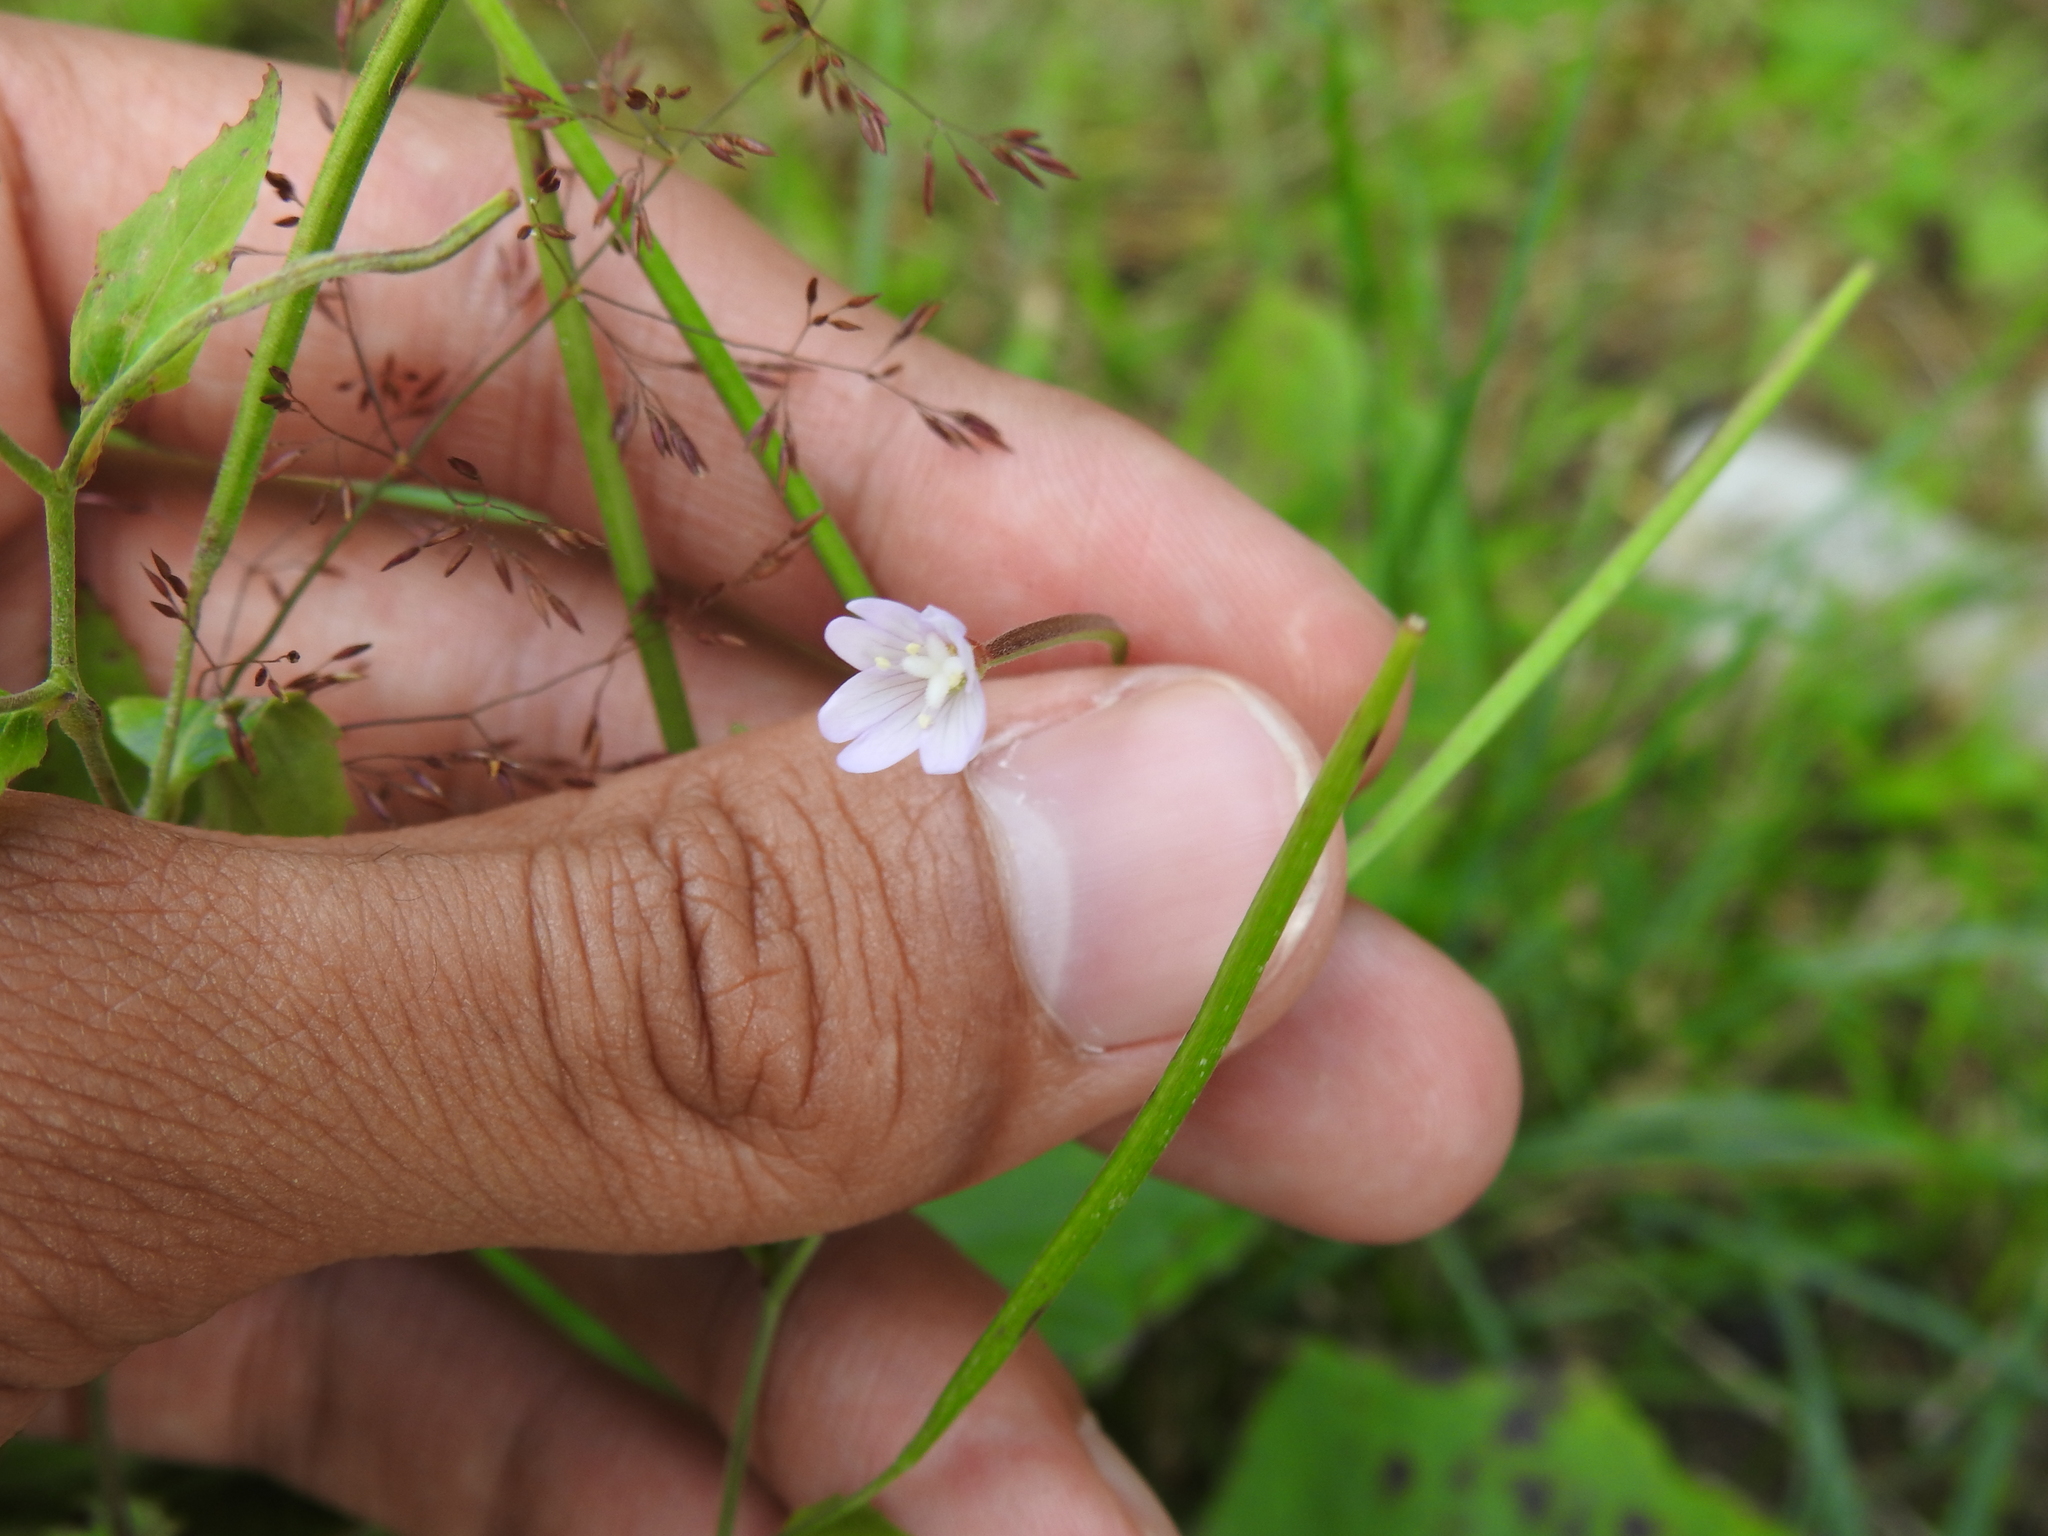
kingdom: Plantae
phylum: Tracheophyta
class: Magnoliopsida
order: Myrtales
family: Onagraceae
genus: Epilobium
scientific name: Epilobium montanum
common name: Broad-leaved willowherb
